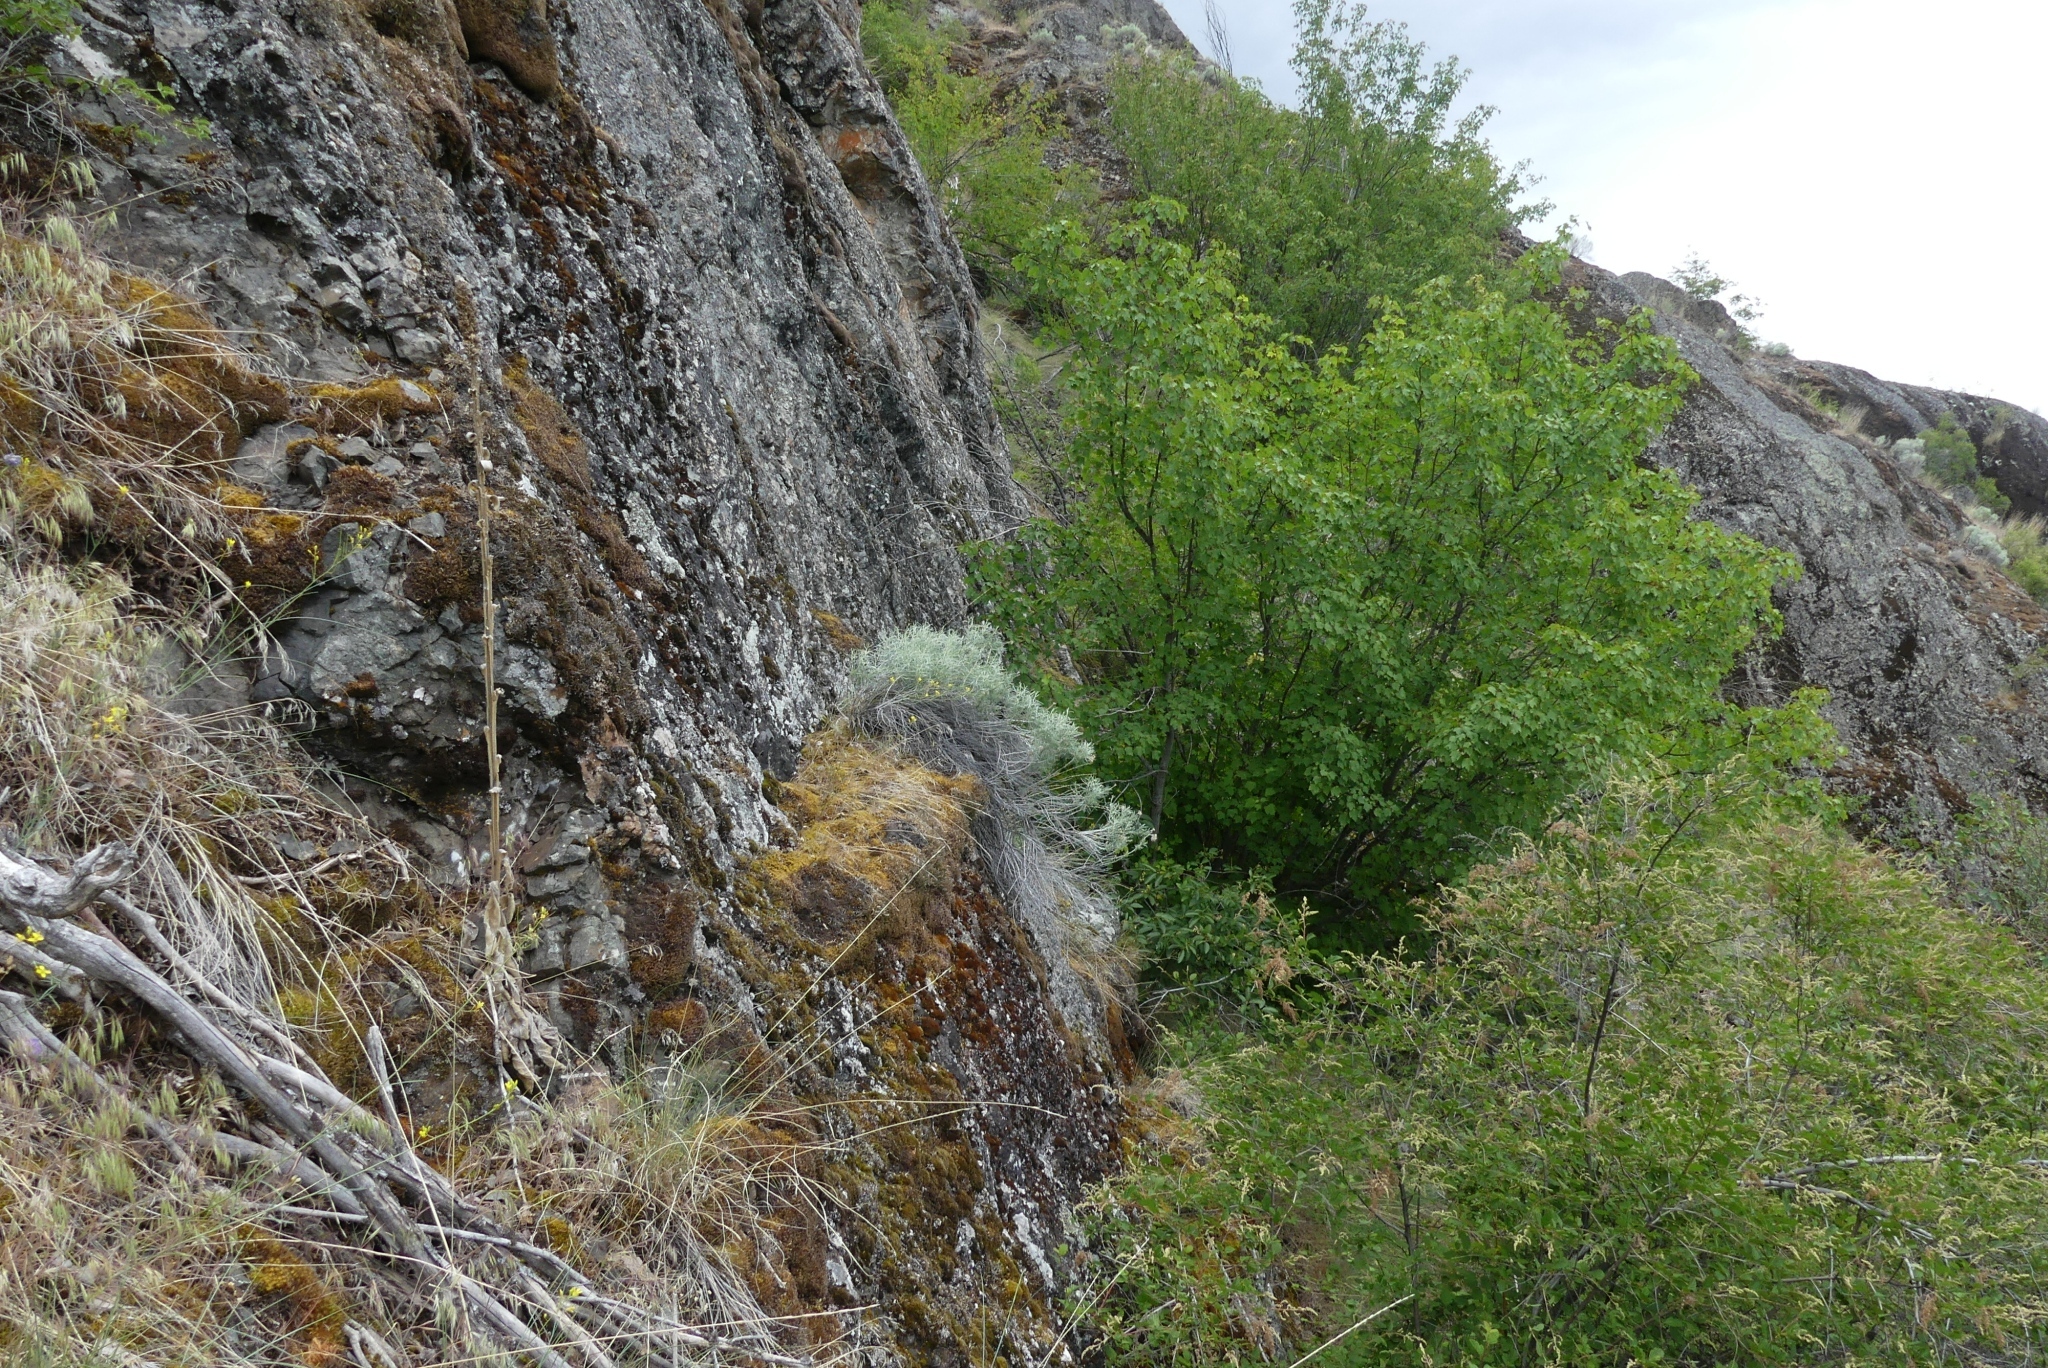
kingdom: Plantae
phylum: Tracheophyta
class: Magnoliopsida
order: Asterales
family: Asteraceae
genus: Ericameria
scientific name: Ericameria nauseosa
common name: Rubber rabbitbrush
